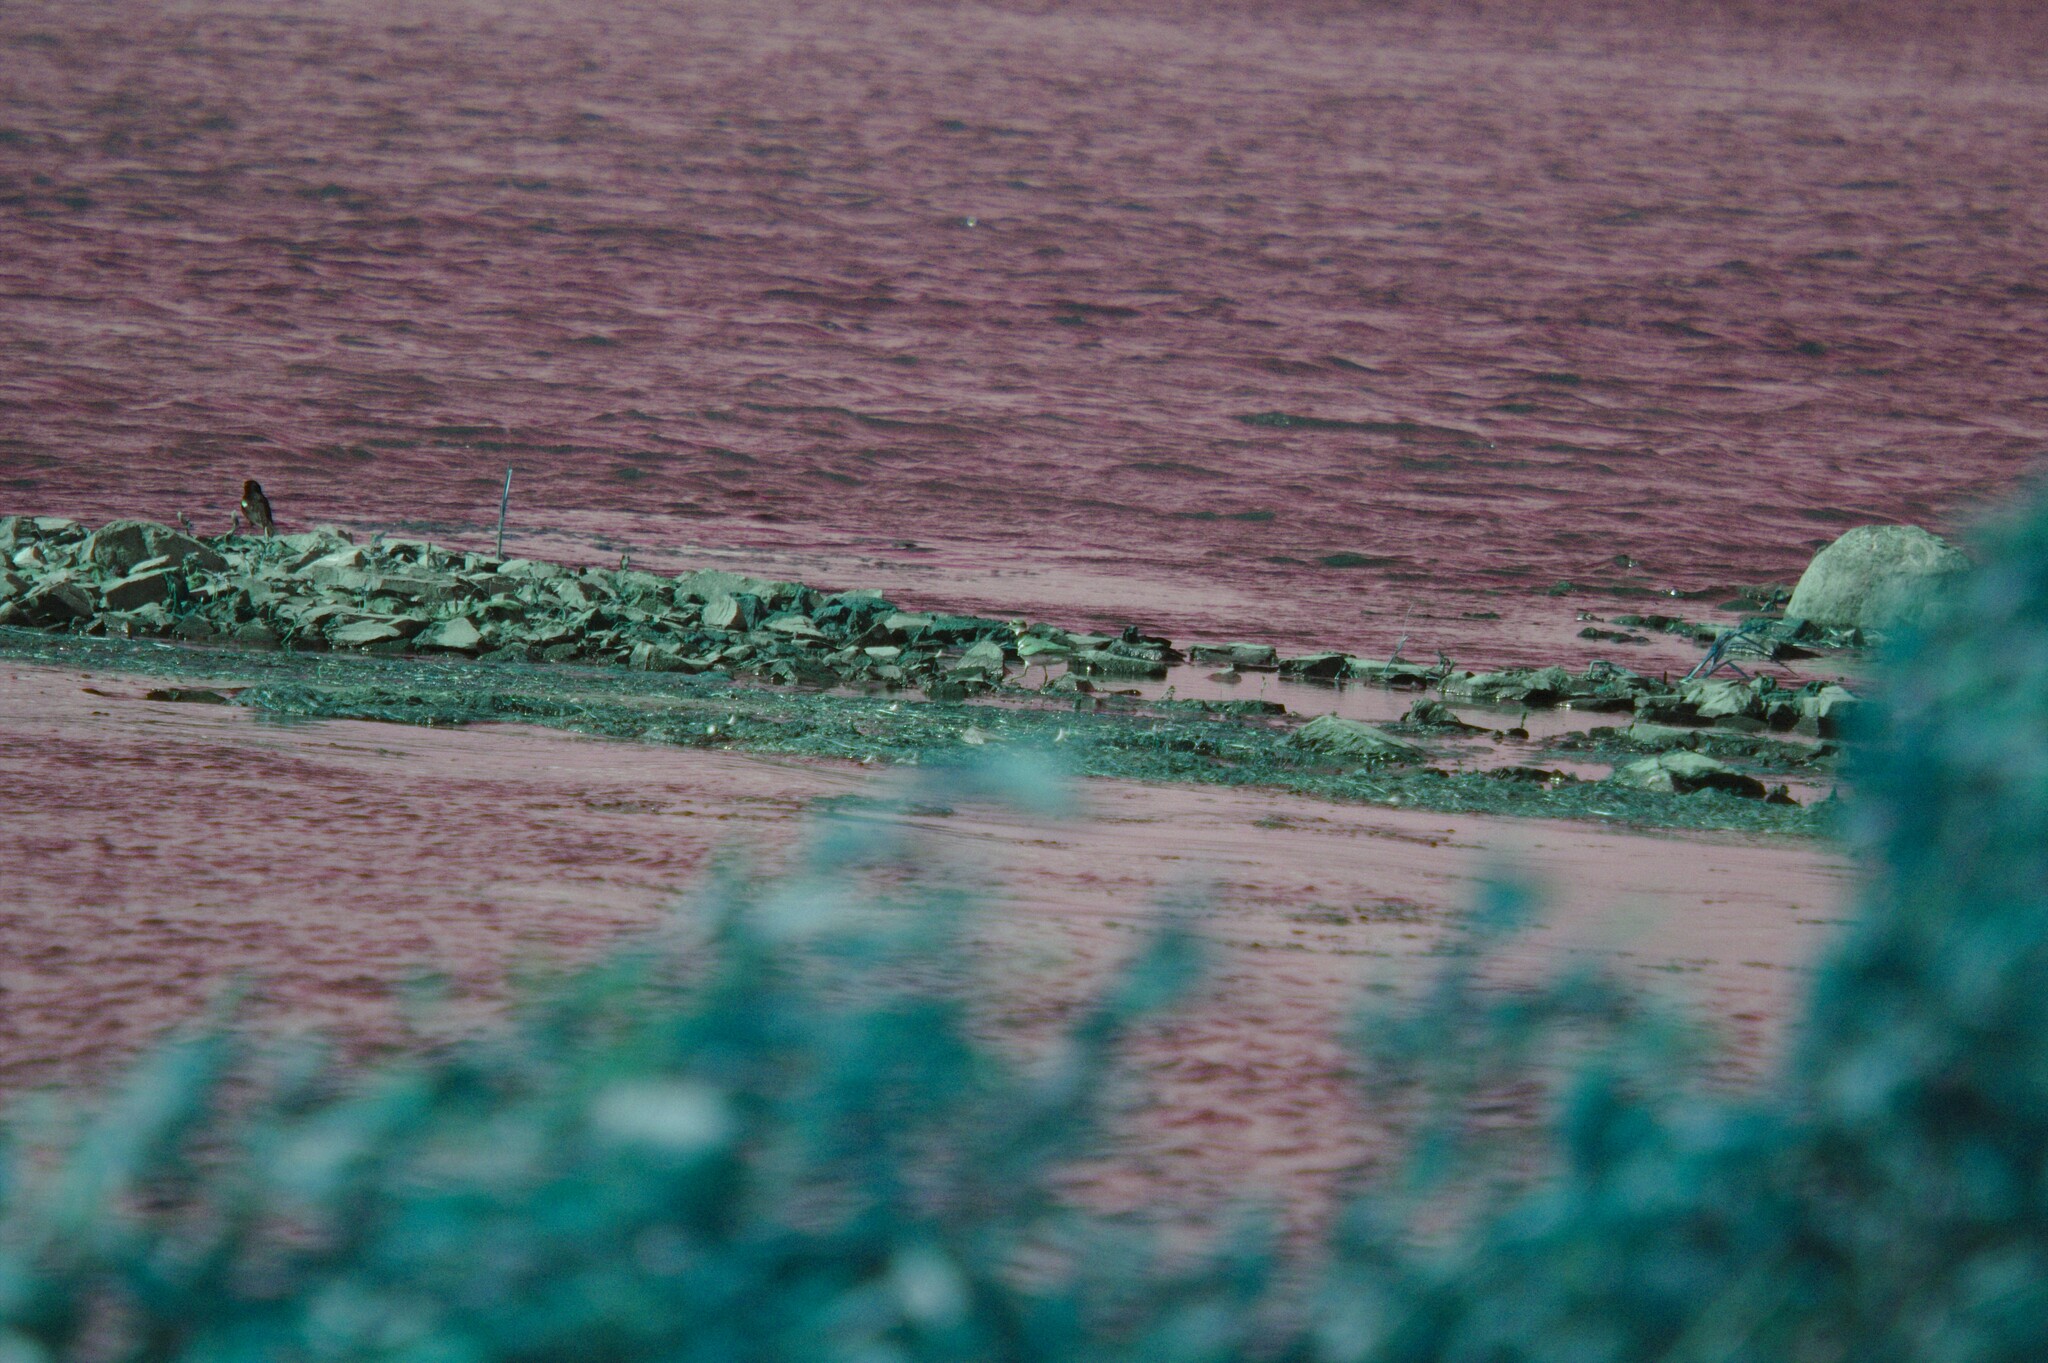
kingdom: Animalia
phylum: Chordata
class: Aves
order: Charadriiformes
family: Charadriidae
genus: Charadrius
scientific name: Charadrius vociferus
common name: Killdeer
